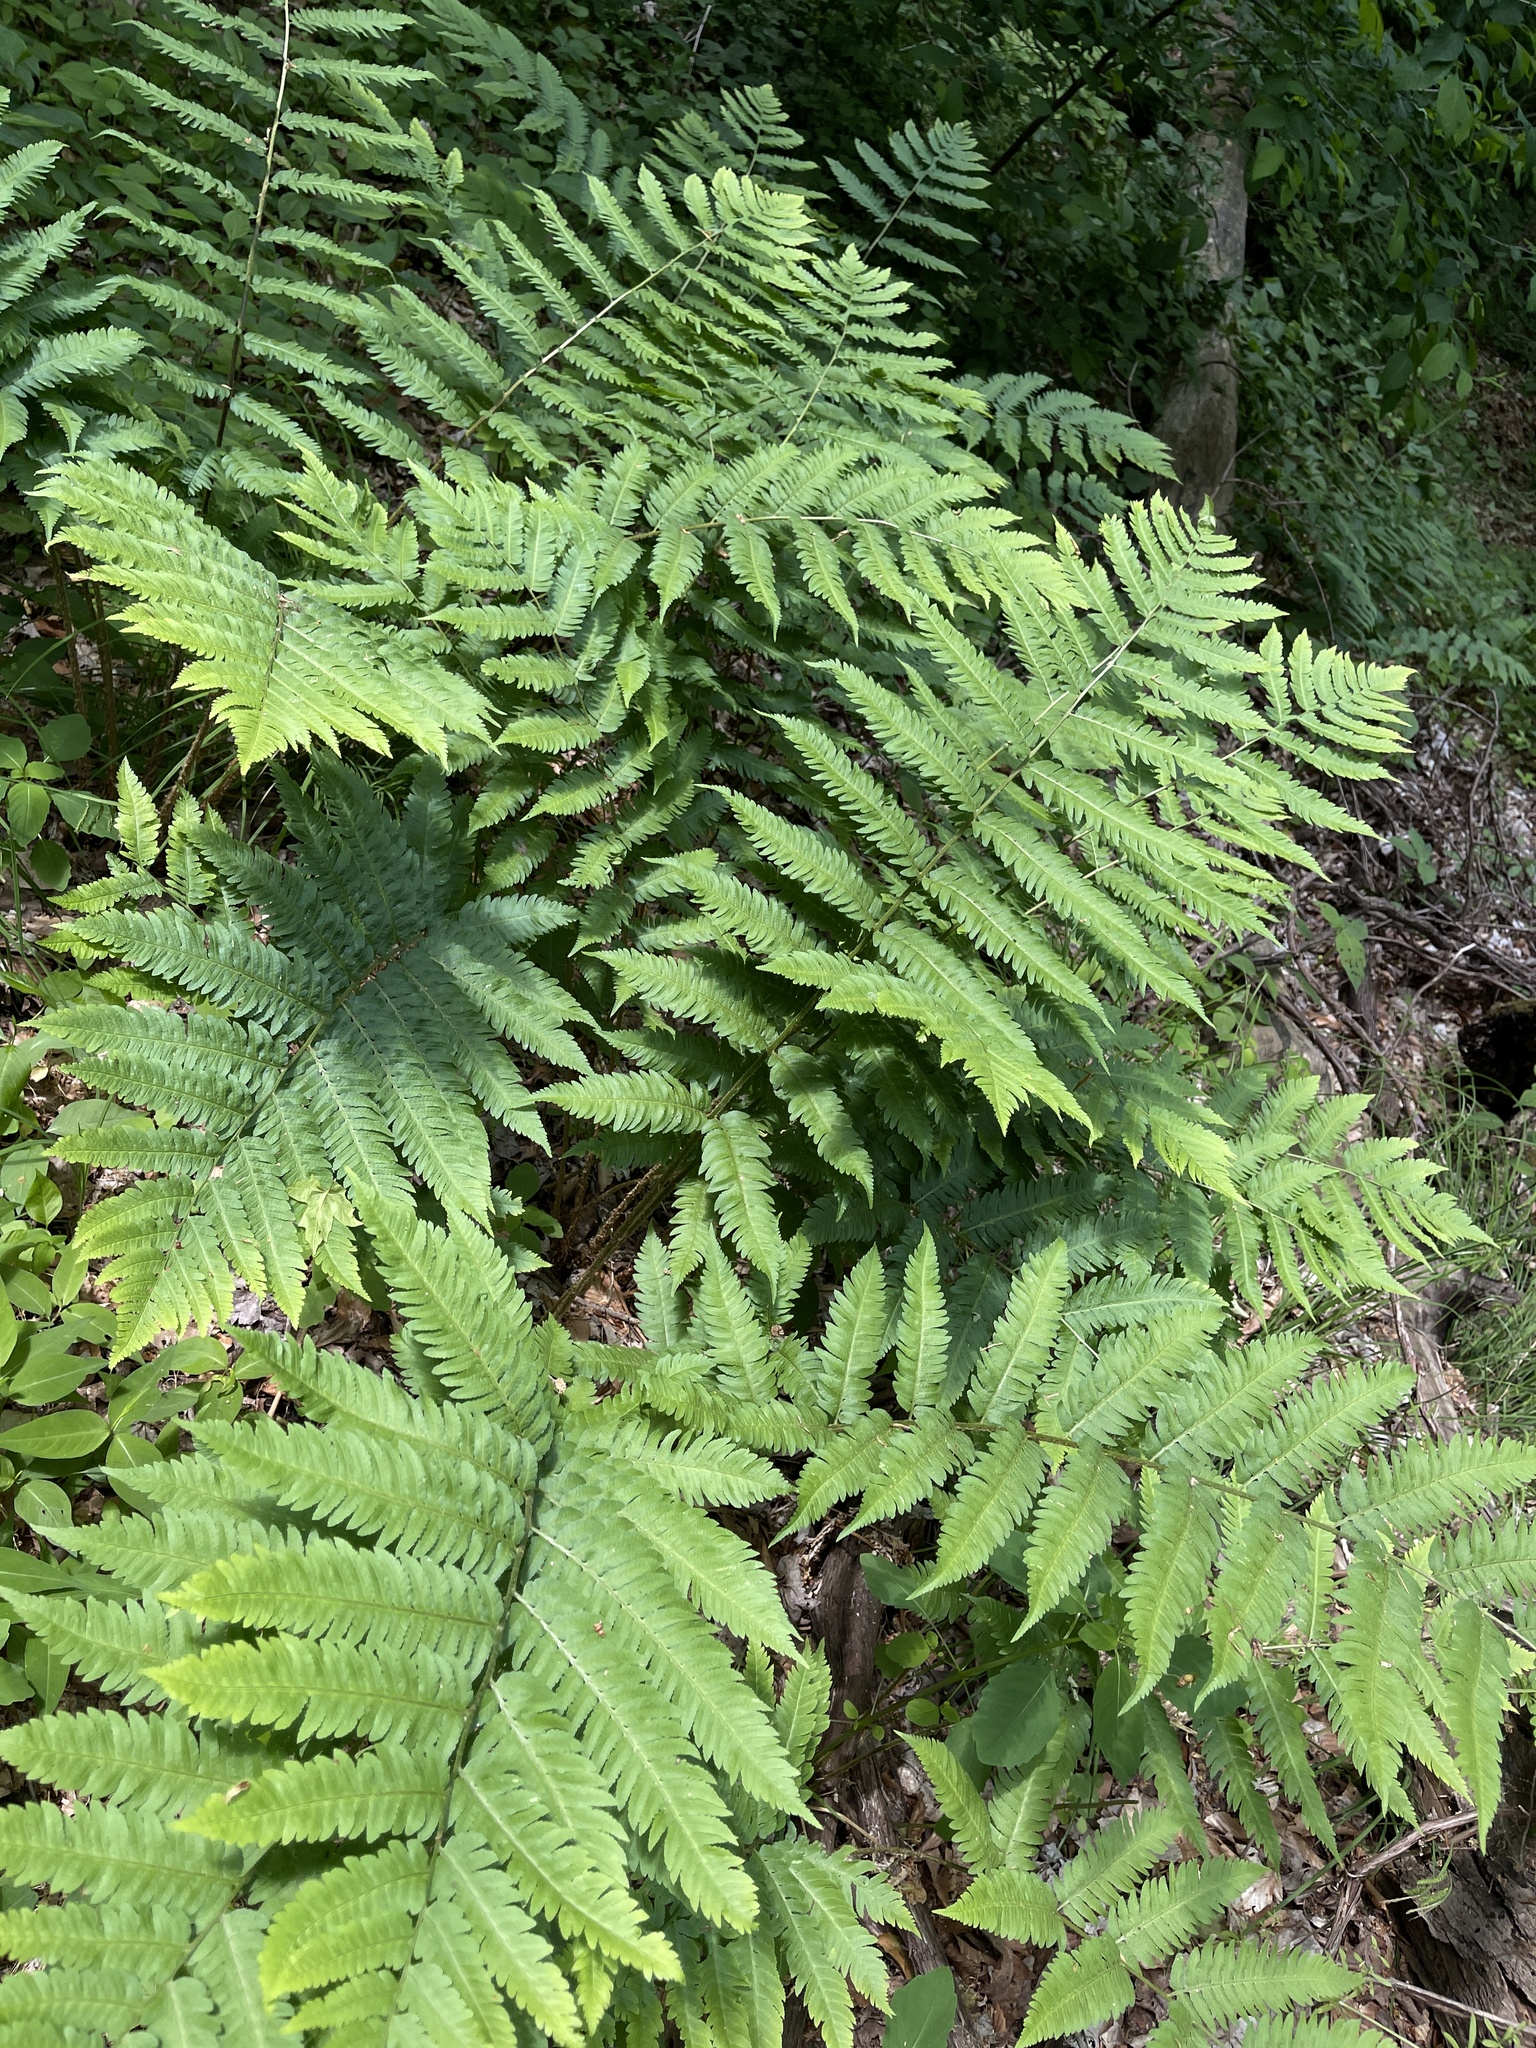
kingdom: Plantae
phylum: Tracheophyta
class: Polypodiopsida
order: Polypodiales
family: Dryopteridaceae
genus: Dryopteris
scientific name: Dryopteris goldieana
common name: Goldie's fern
